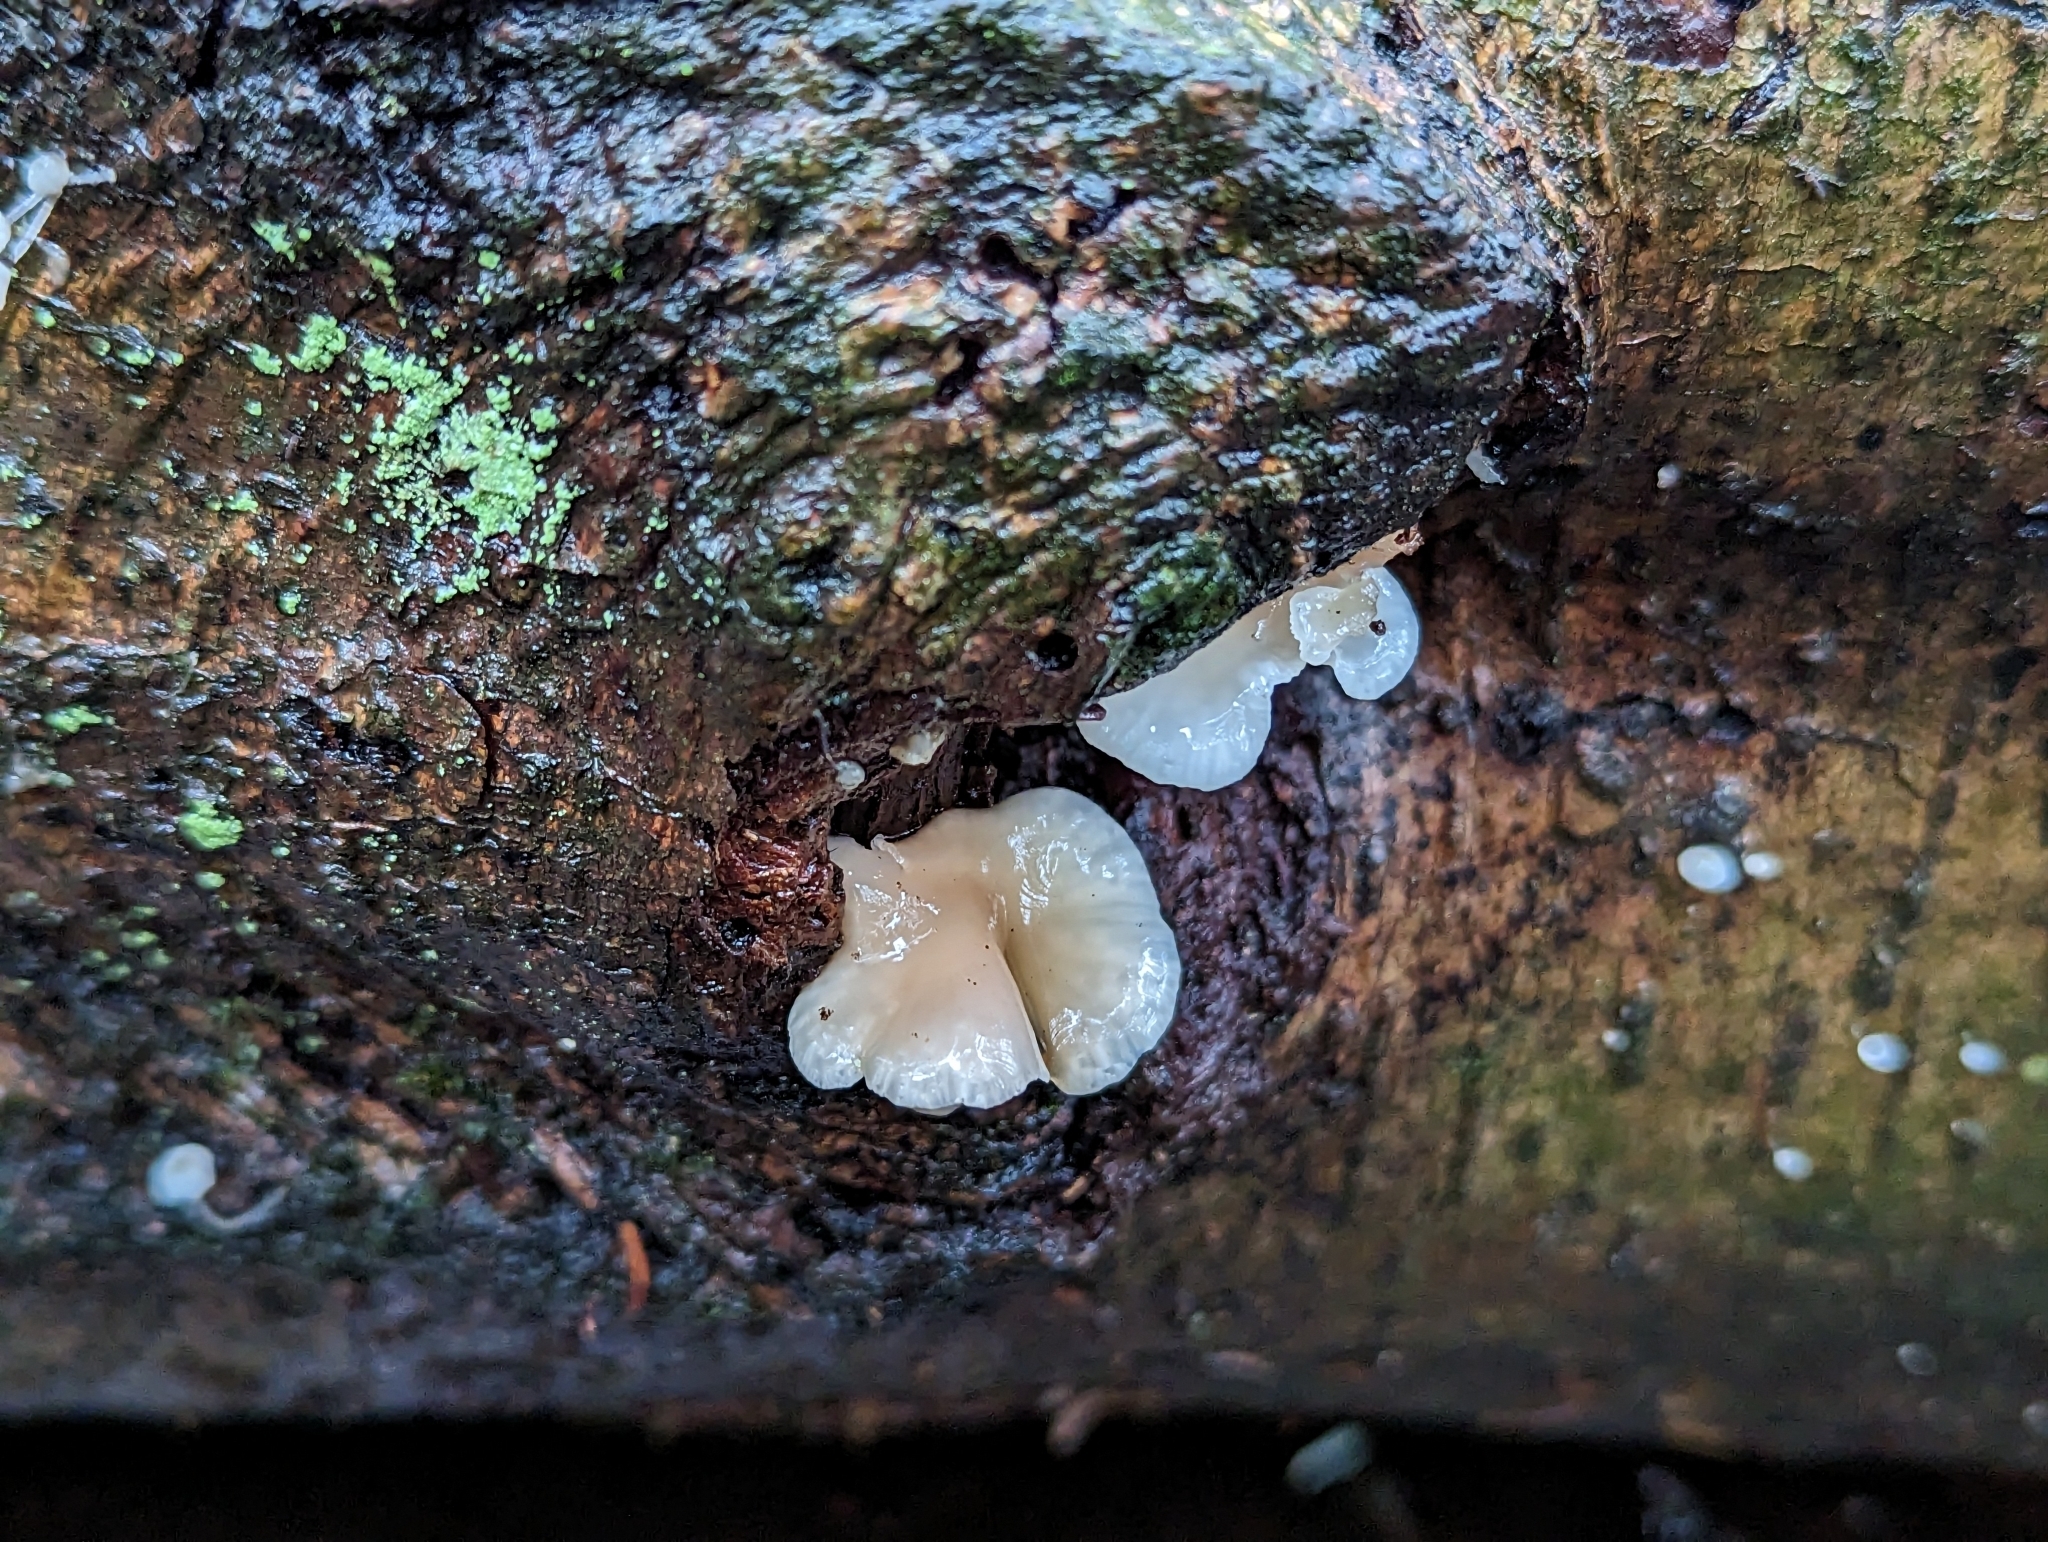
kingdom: Fungi
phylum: Basidiomycota
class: Agaricomycetes
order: Agaricales
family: Mycenaceae
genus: Panellus
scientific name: Panellus longinquus
